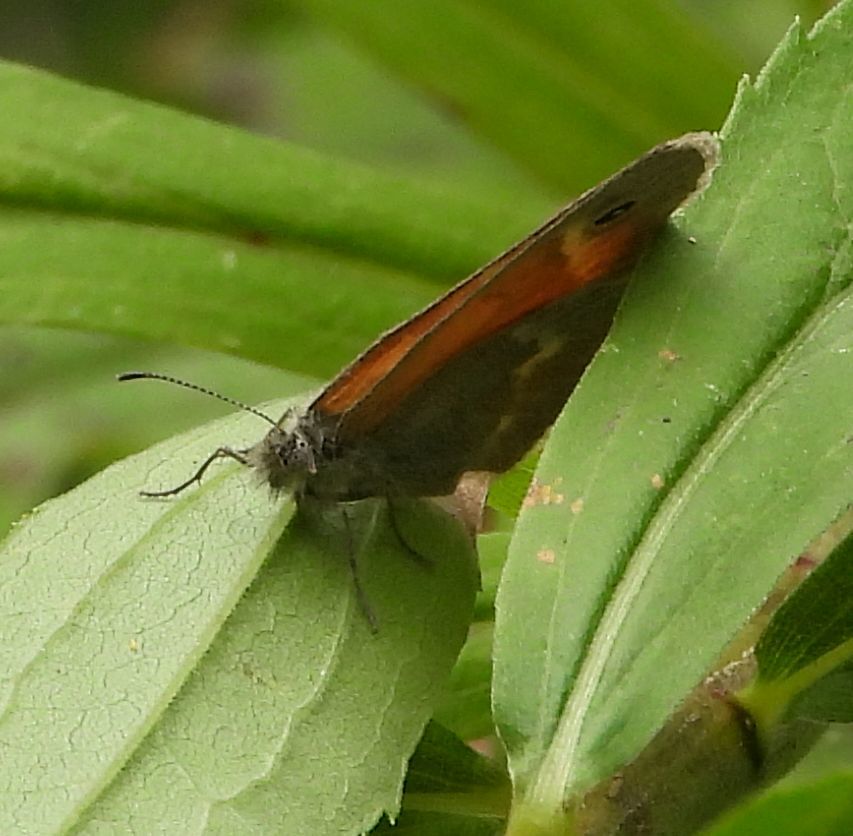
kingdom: Animalia
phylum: Arthropoda
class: Insecta
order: Lepidoptera
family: Nymphalidae
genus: Coenonympha
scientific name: Coenonympha california
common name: Common ringlet
